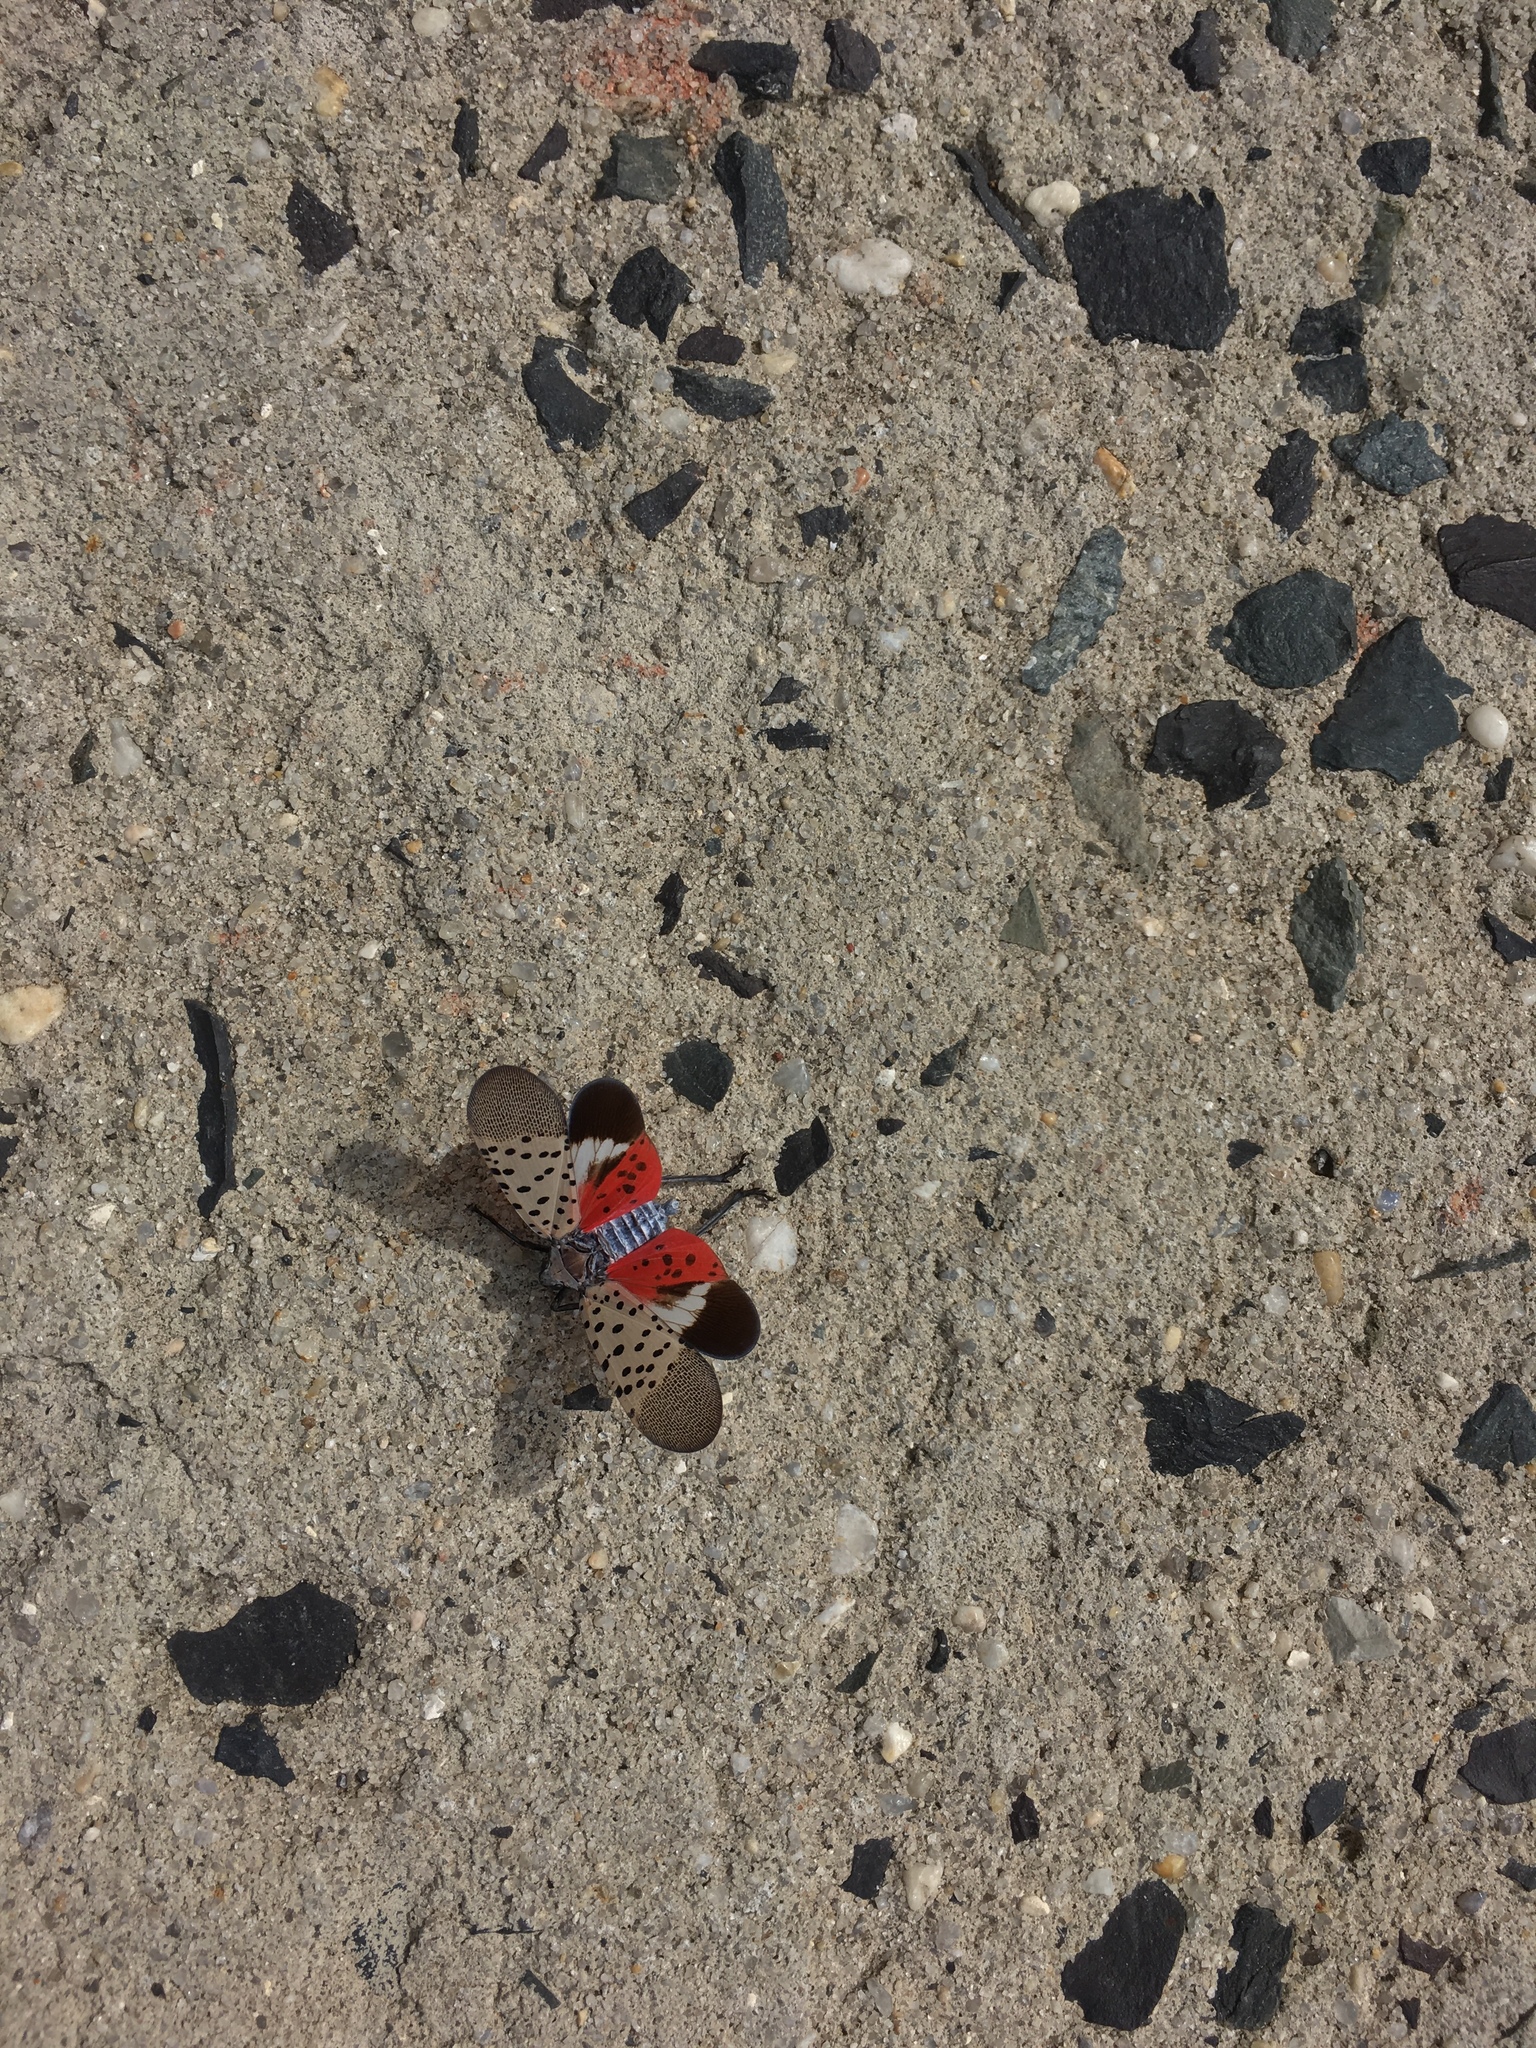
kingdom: Animalia
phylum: Arthropoda
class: Insecta
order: Hemiptera
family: Fulgoridae
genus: Lycorma
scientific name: Lycorma delicatula
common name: Spotted lanternfly
